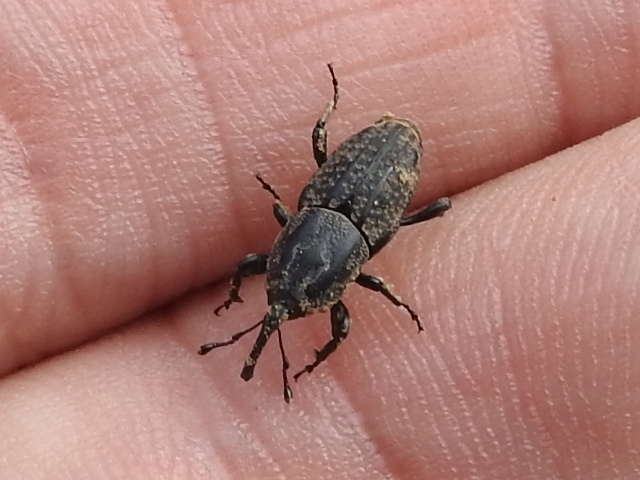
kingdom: Animalia
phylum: Arthropoda
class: Insecta
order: Coleoptera
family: Dryophthoridae
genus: Sphenophorus
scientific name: Sphenophorus cariosus
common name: Weevil
